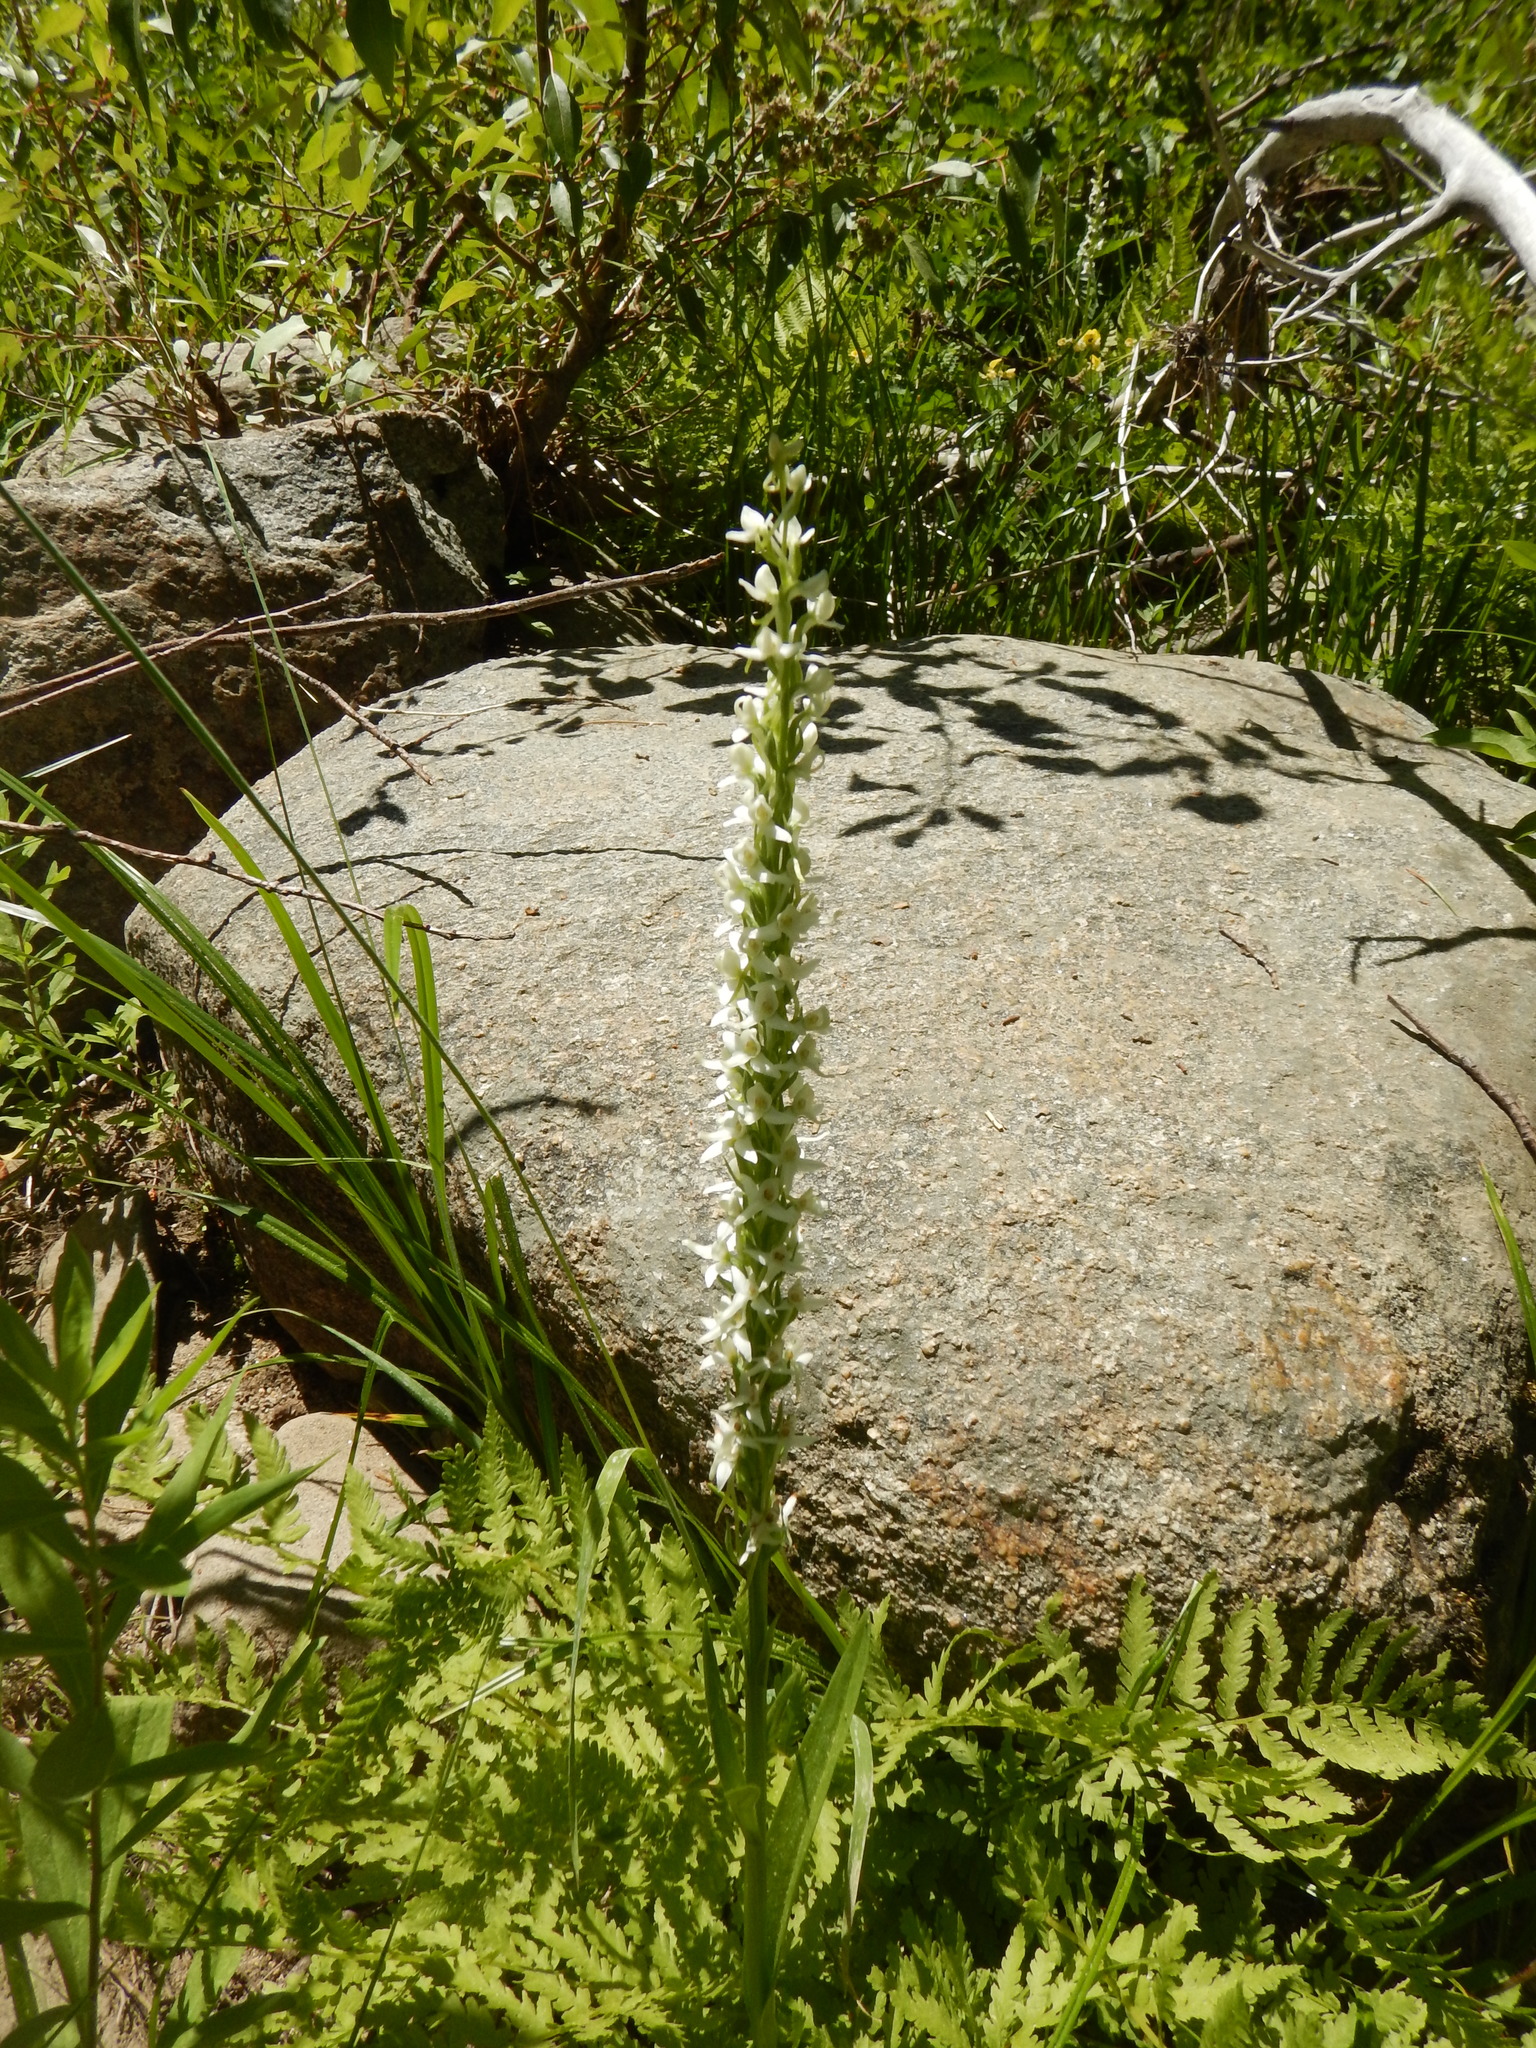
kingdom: Plantae
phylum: Tracheophyta
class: Liliopsida
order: Asparagales
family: Orchidaceae
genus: Platanthera
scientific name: Platanthera dilatata
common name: Bog candles
